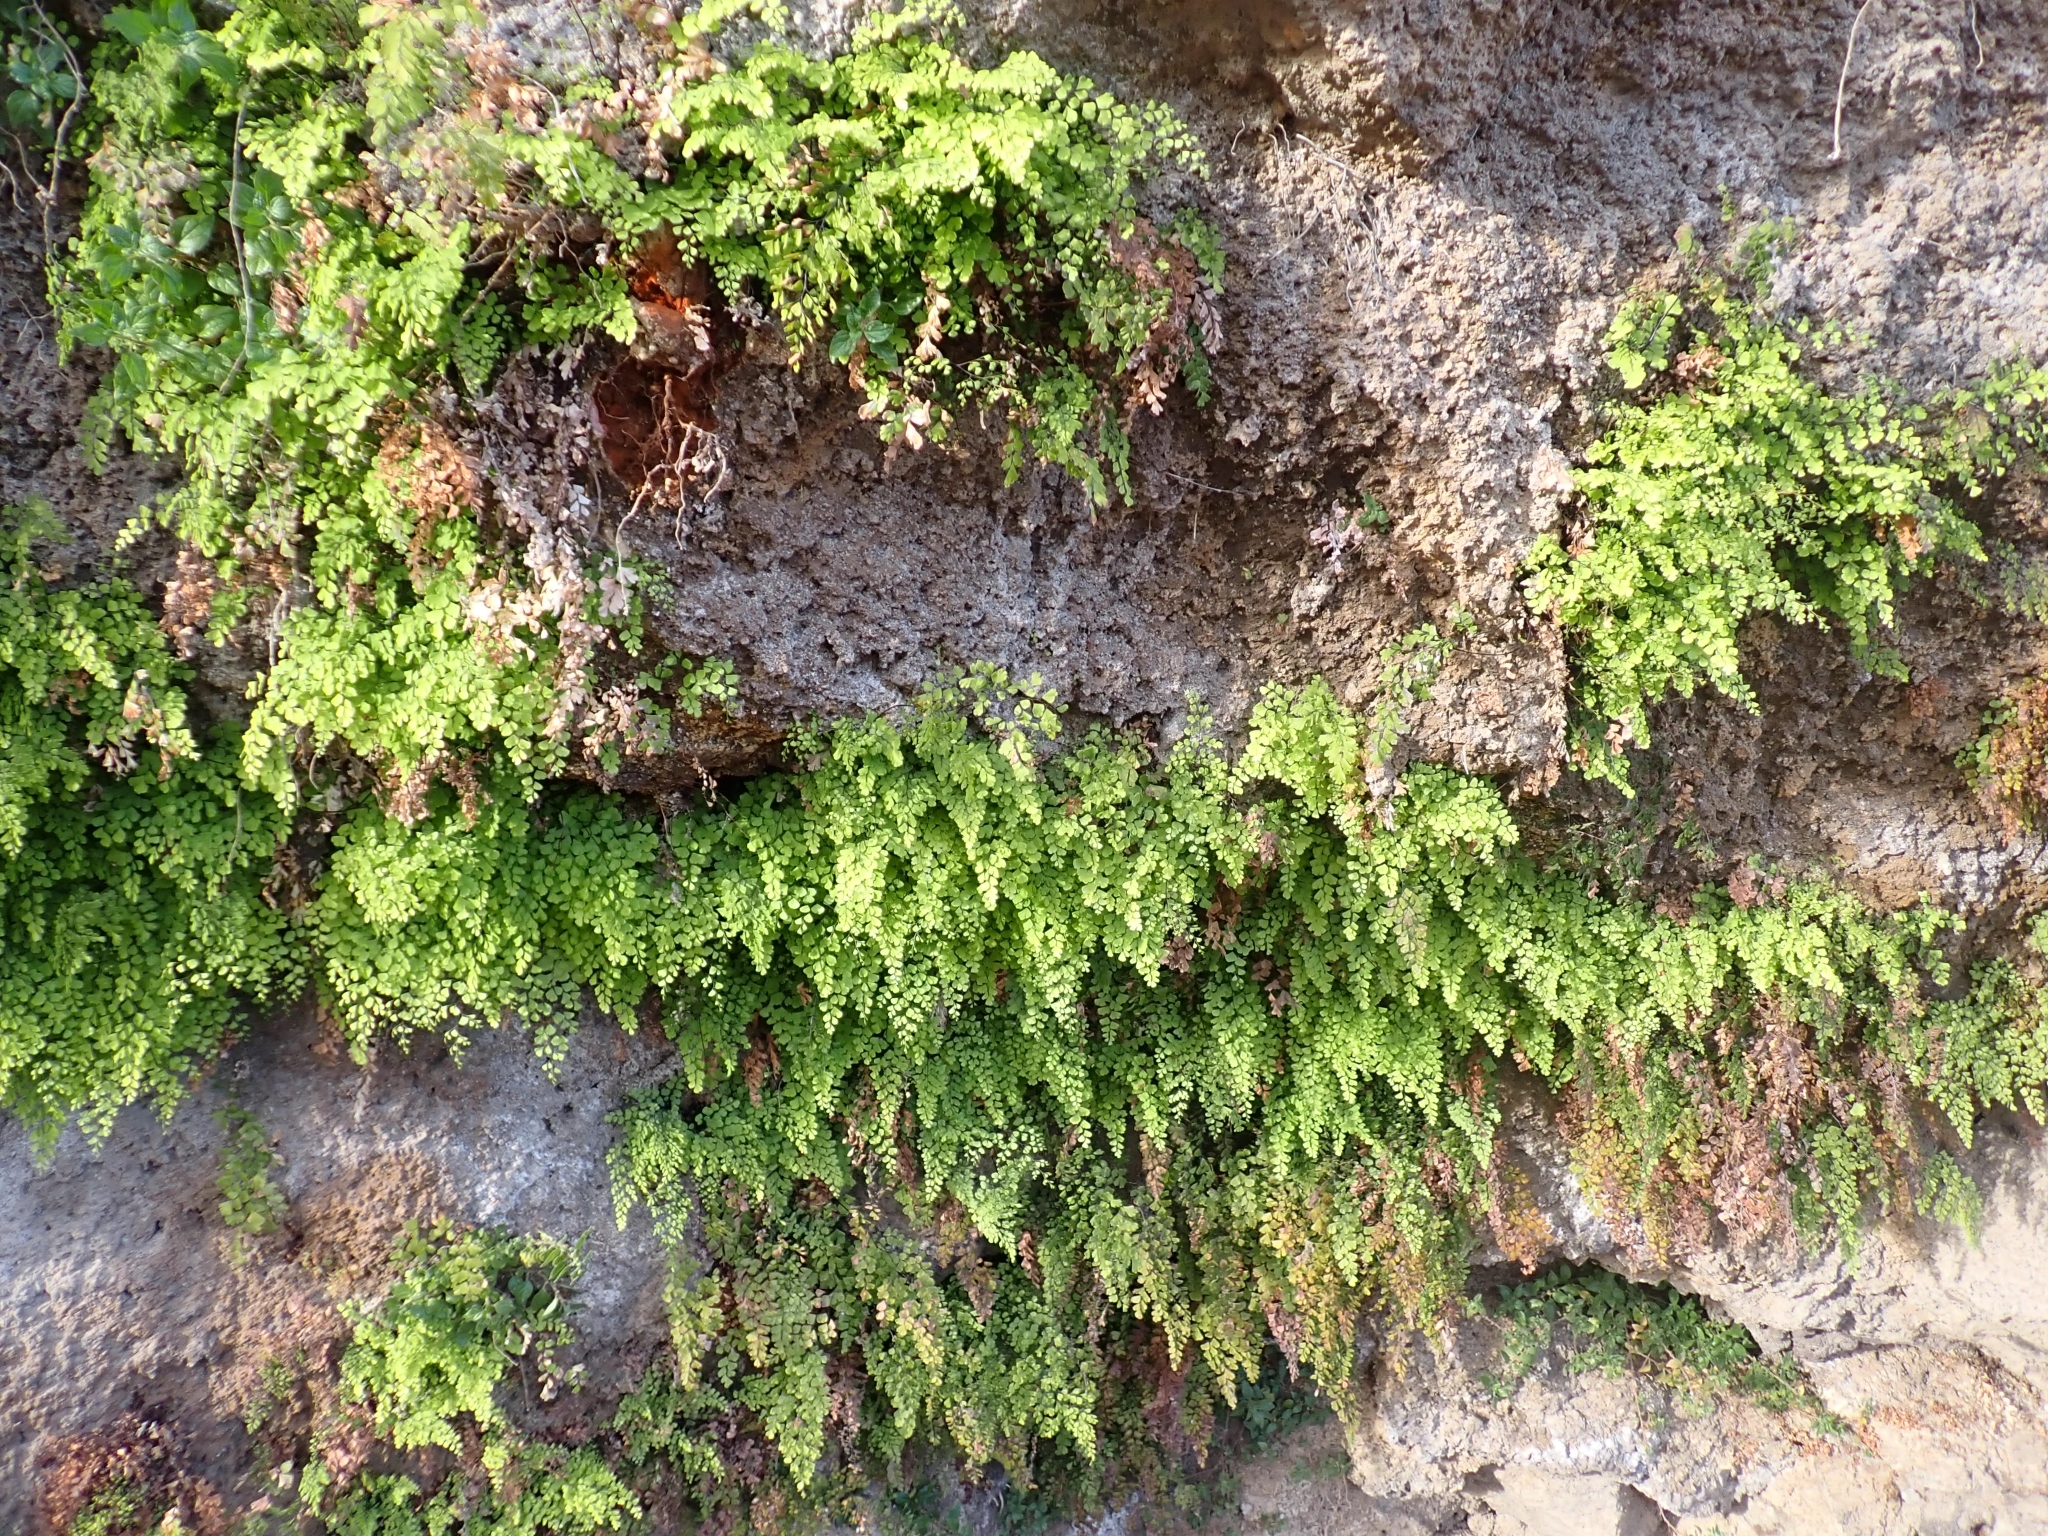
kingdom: Plantae
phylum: Tracheophyta
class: Polypodiopsida
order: Polypodiales
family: Pteridaceae
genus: Adiantum
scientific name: Adiantum capillus-veneris
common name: Maidenhair fern
